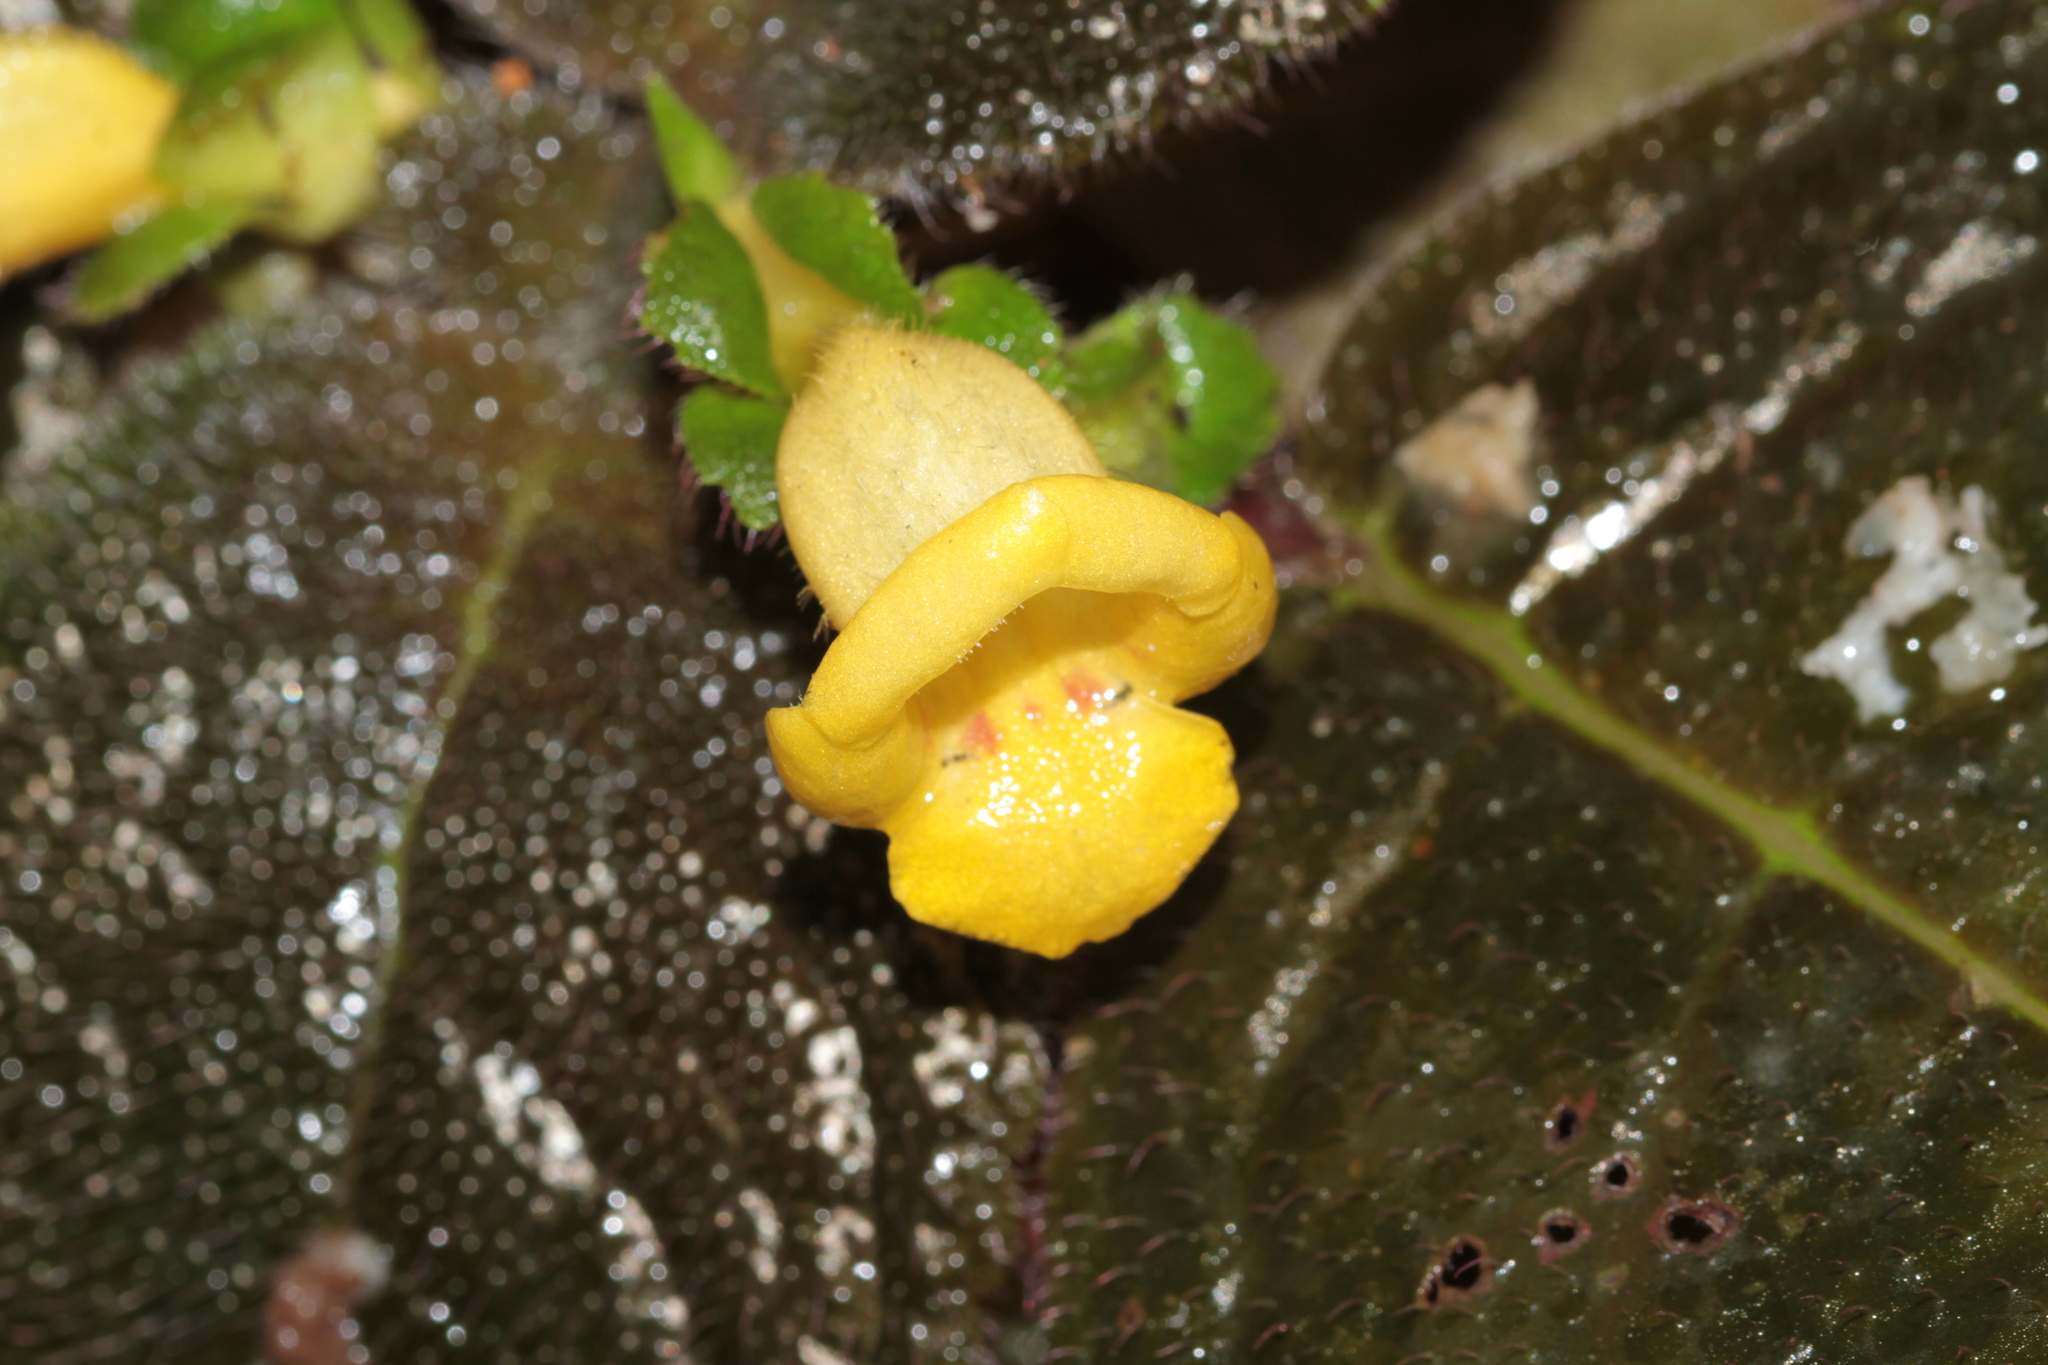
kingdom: Plantae
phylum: Tracheophyta
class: Magnoliopsida
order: Lamiales
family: Gesneriaceae
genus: Christopheria
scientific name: Christopheria xantha
